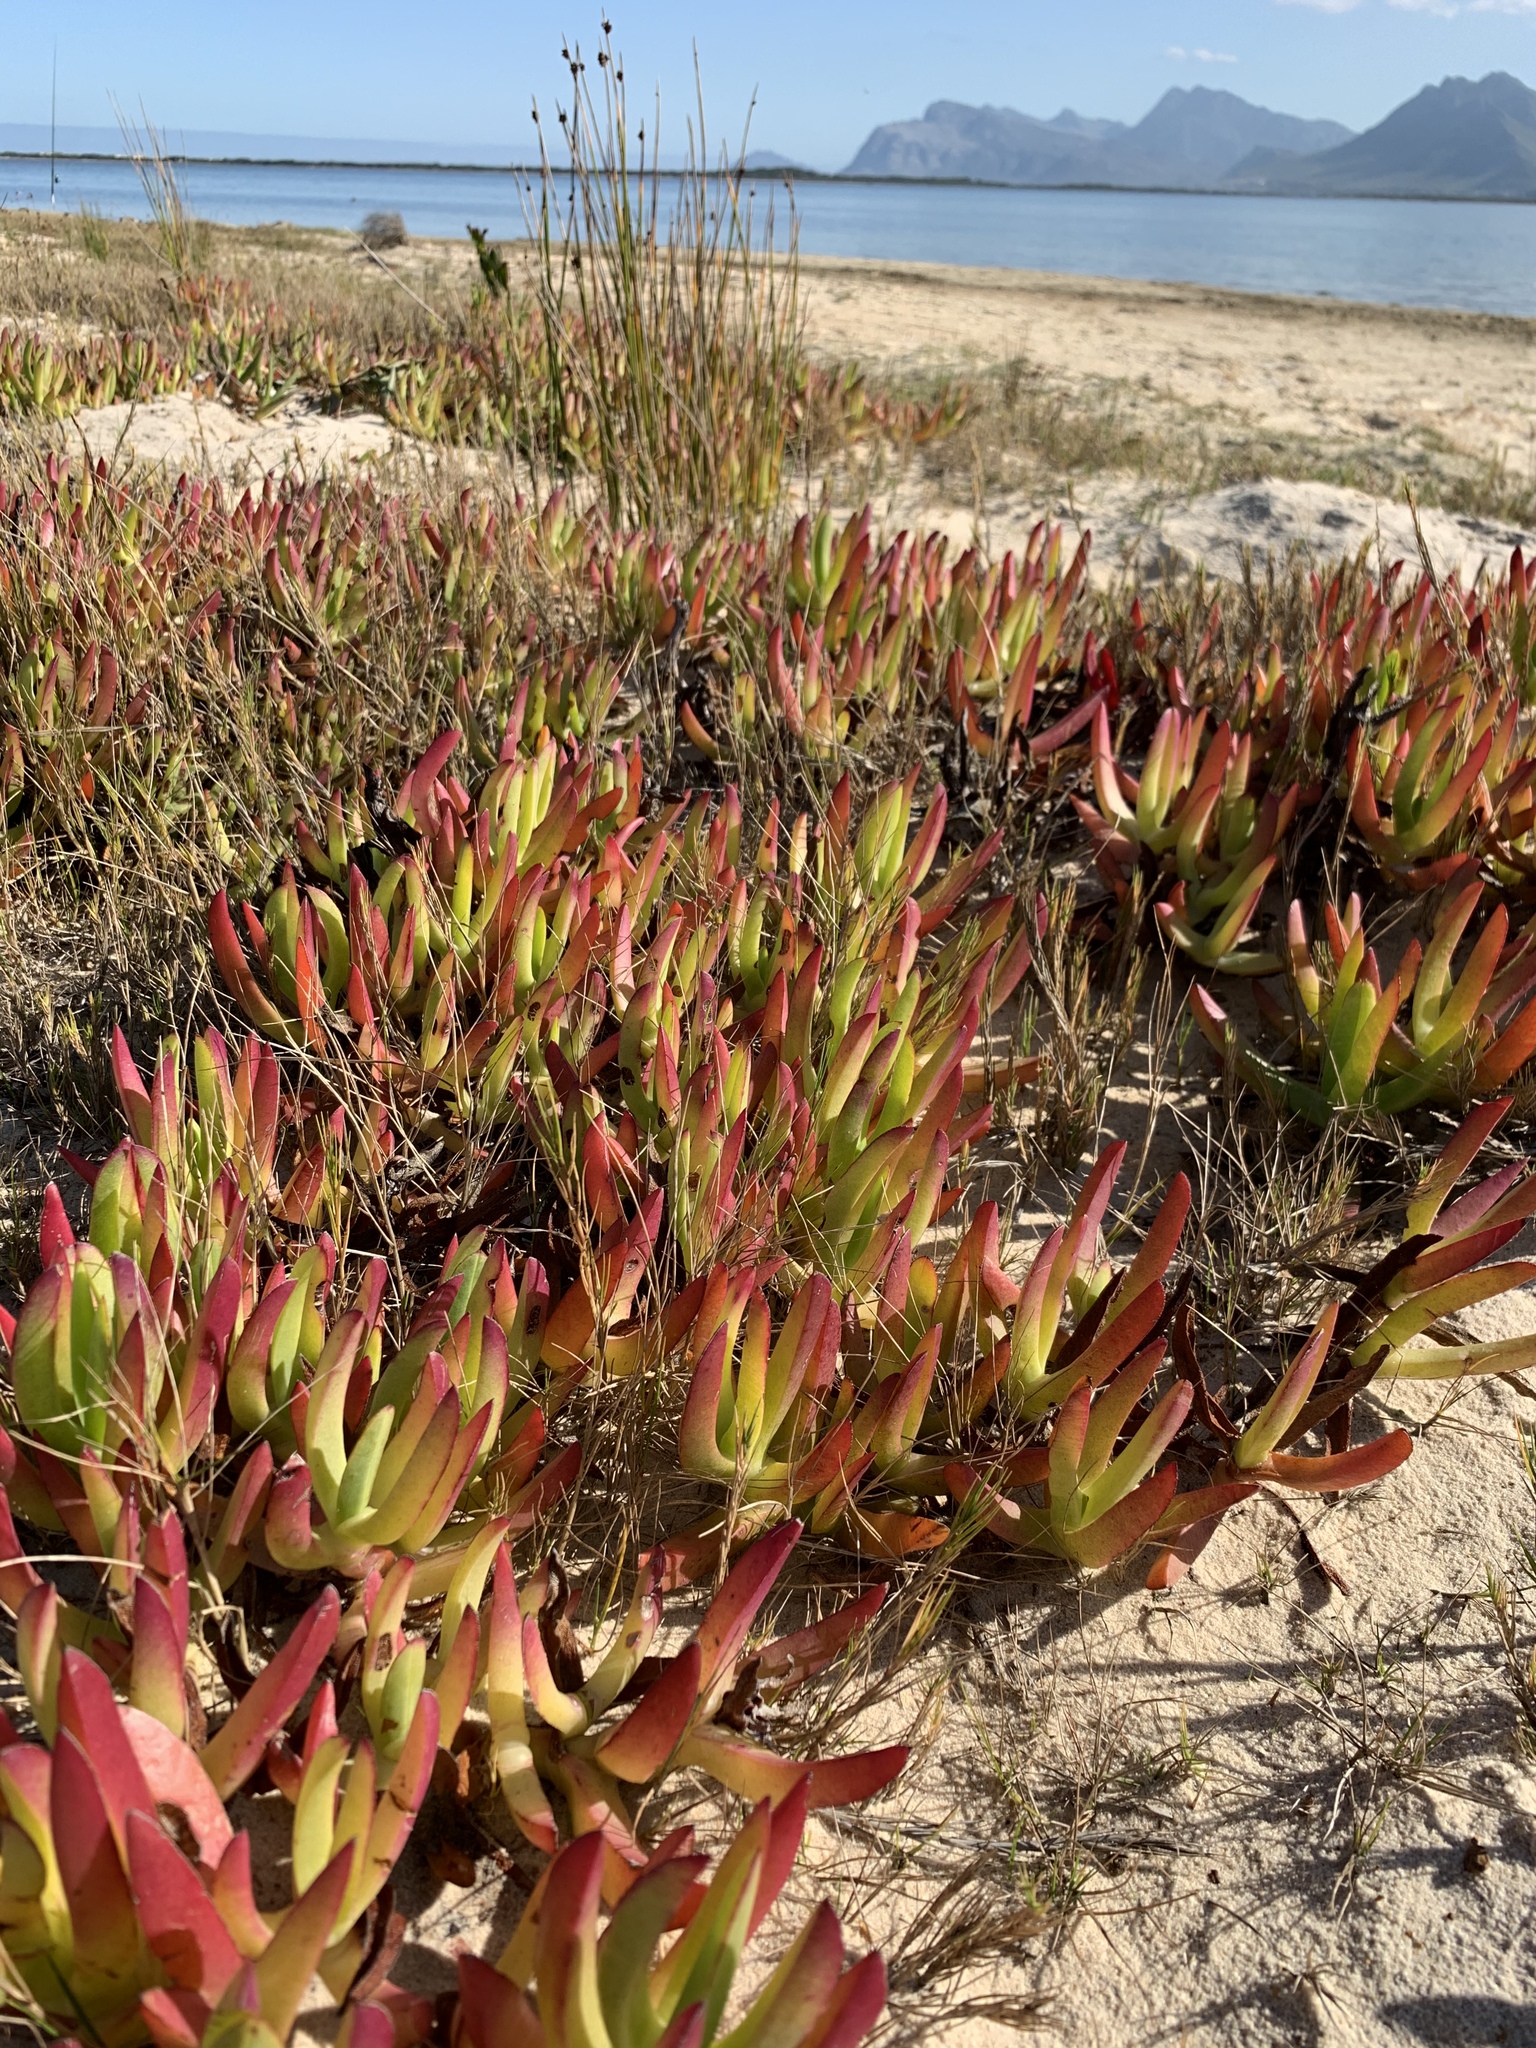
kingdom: Plantae
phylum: Tracheophyta
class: Magnoliopsida
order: Caryophyllales
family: Aizoaceae
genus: Carpobrotus
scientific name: Carpobrotus edulis
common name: Hottentot-fig
